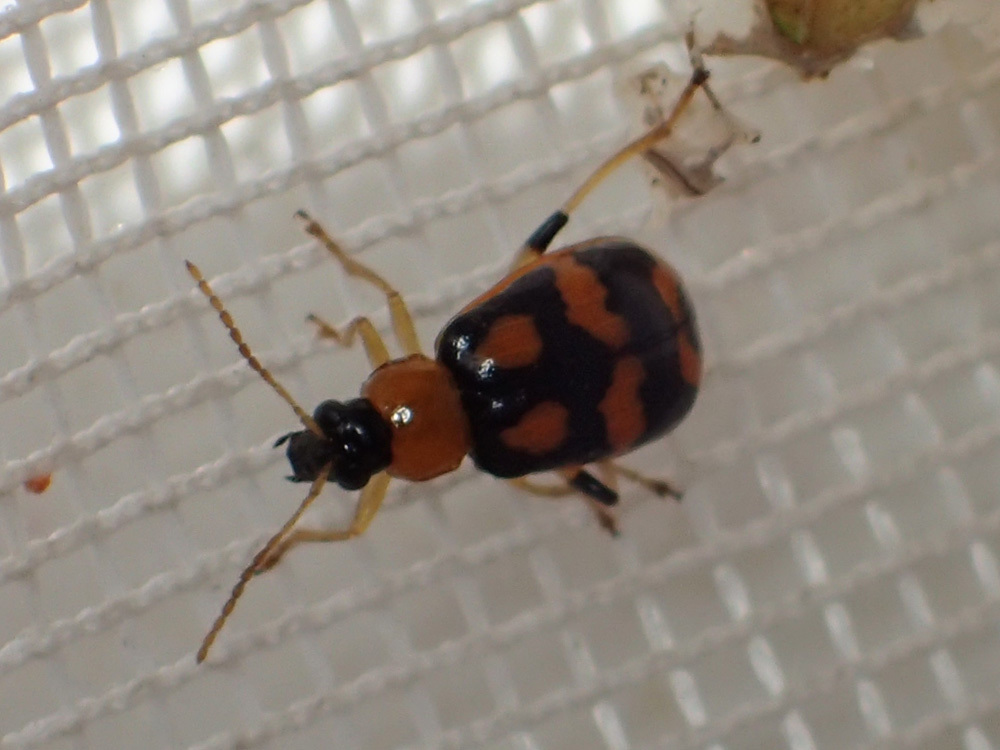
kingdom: Animalia
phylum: Arthropoda
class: Insecta
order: Coleoptera
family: Chrysomelidae
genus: Cerotoma
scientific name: Cerotoma ruficornis
